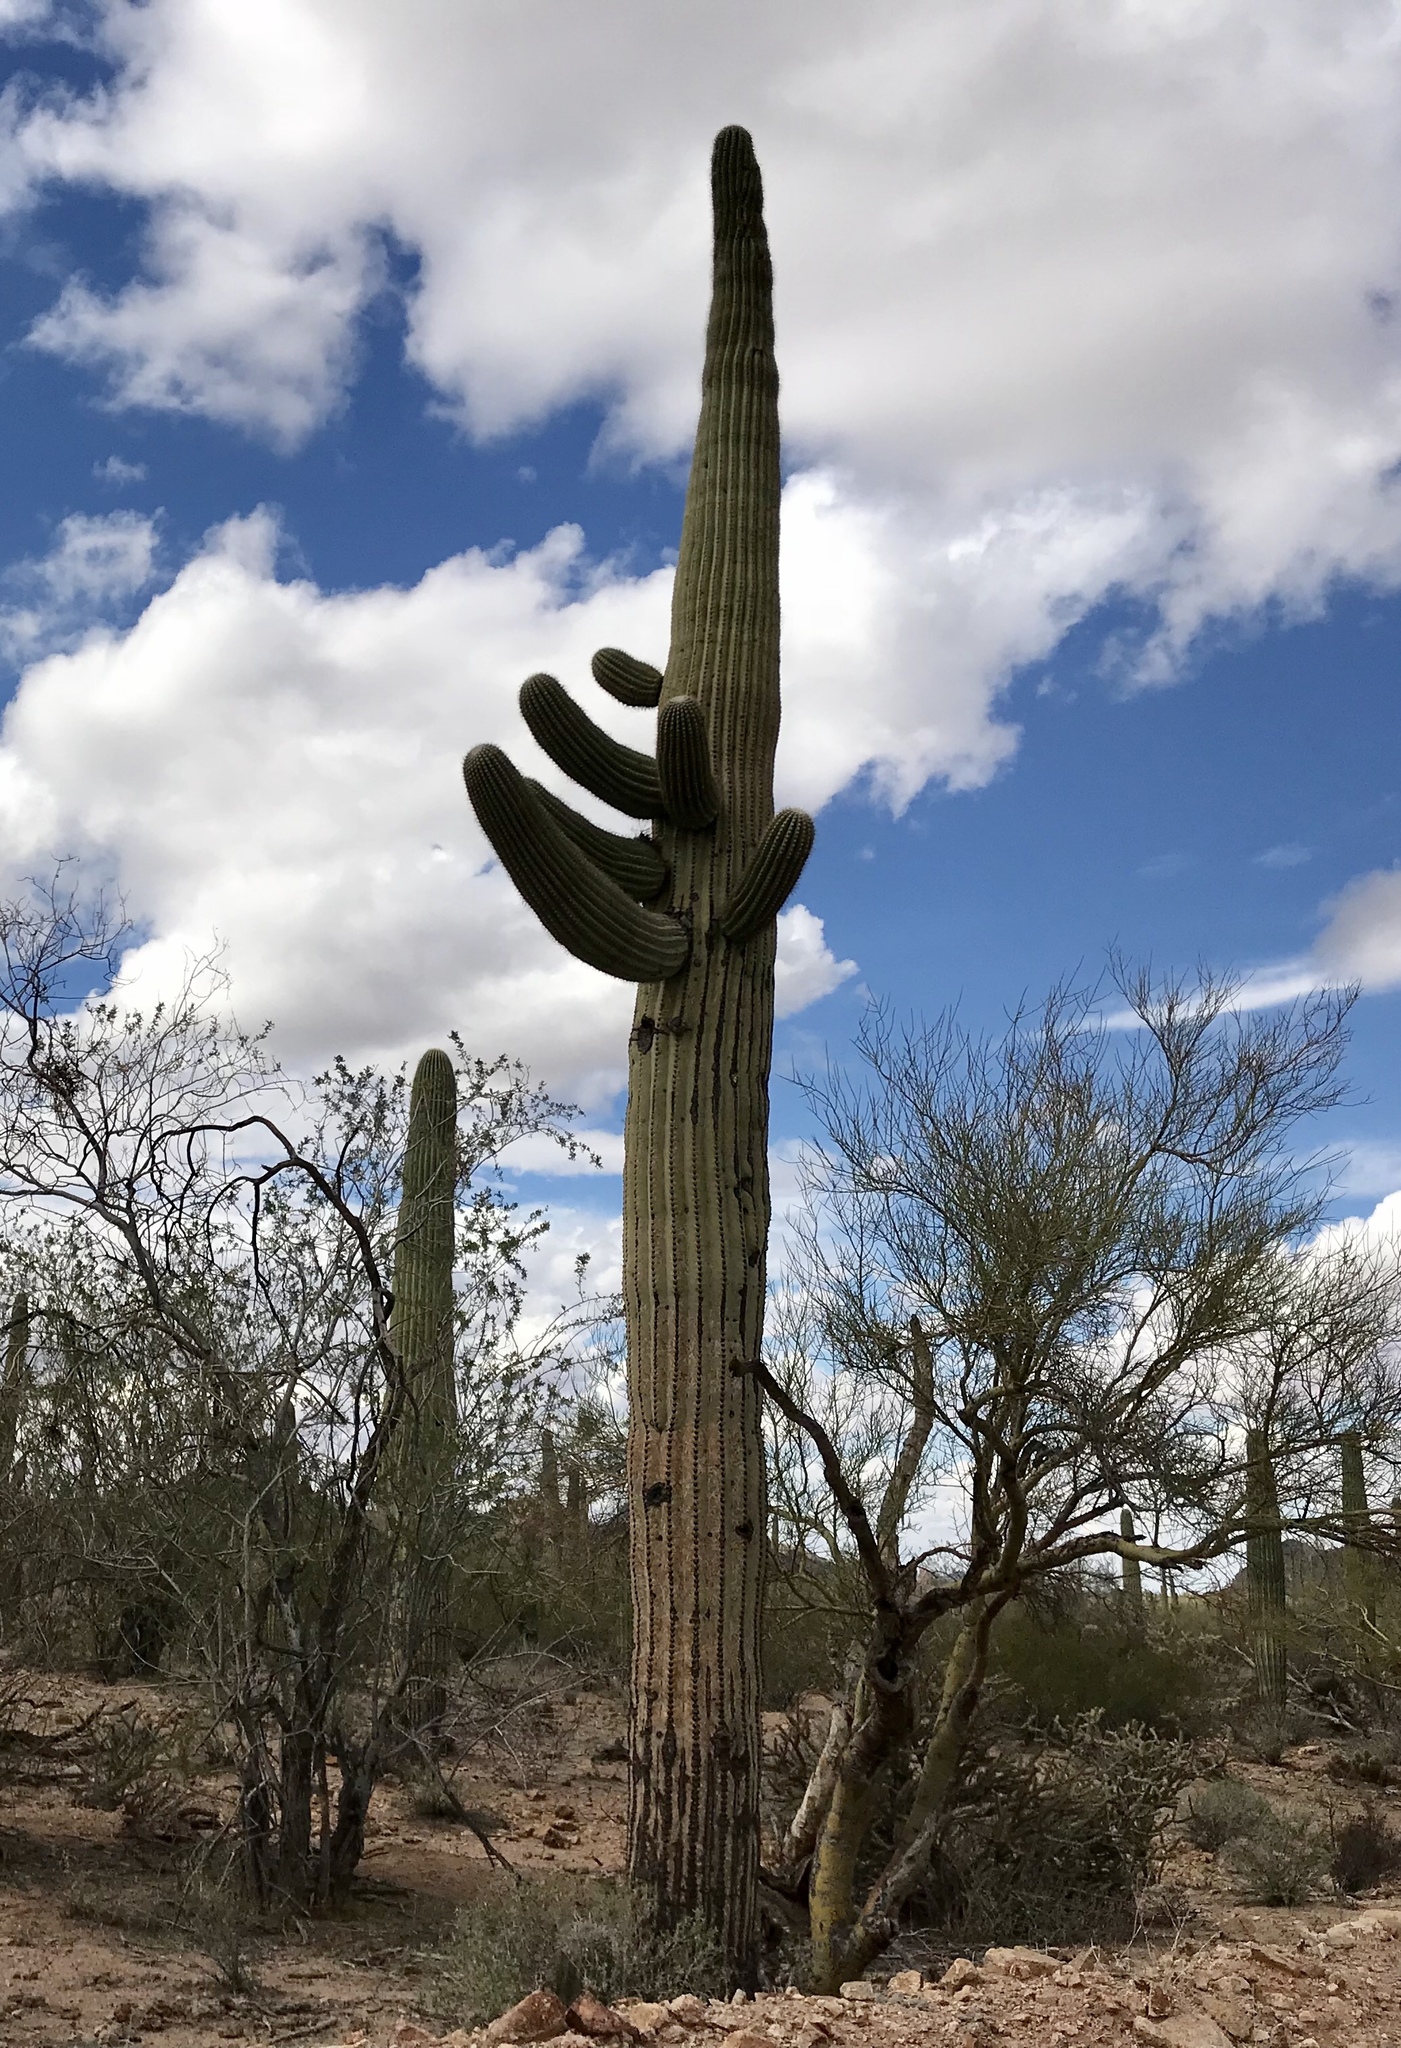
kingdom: Plantae
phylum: Tracheophyta
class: Magnoliopsida
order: Caryophyllales
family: Cactaceae
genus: Carnegiea
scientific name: Carnegiea gigantea
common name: Saguaro
